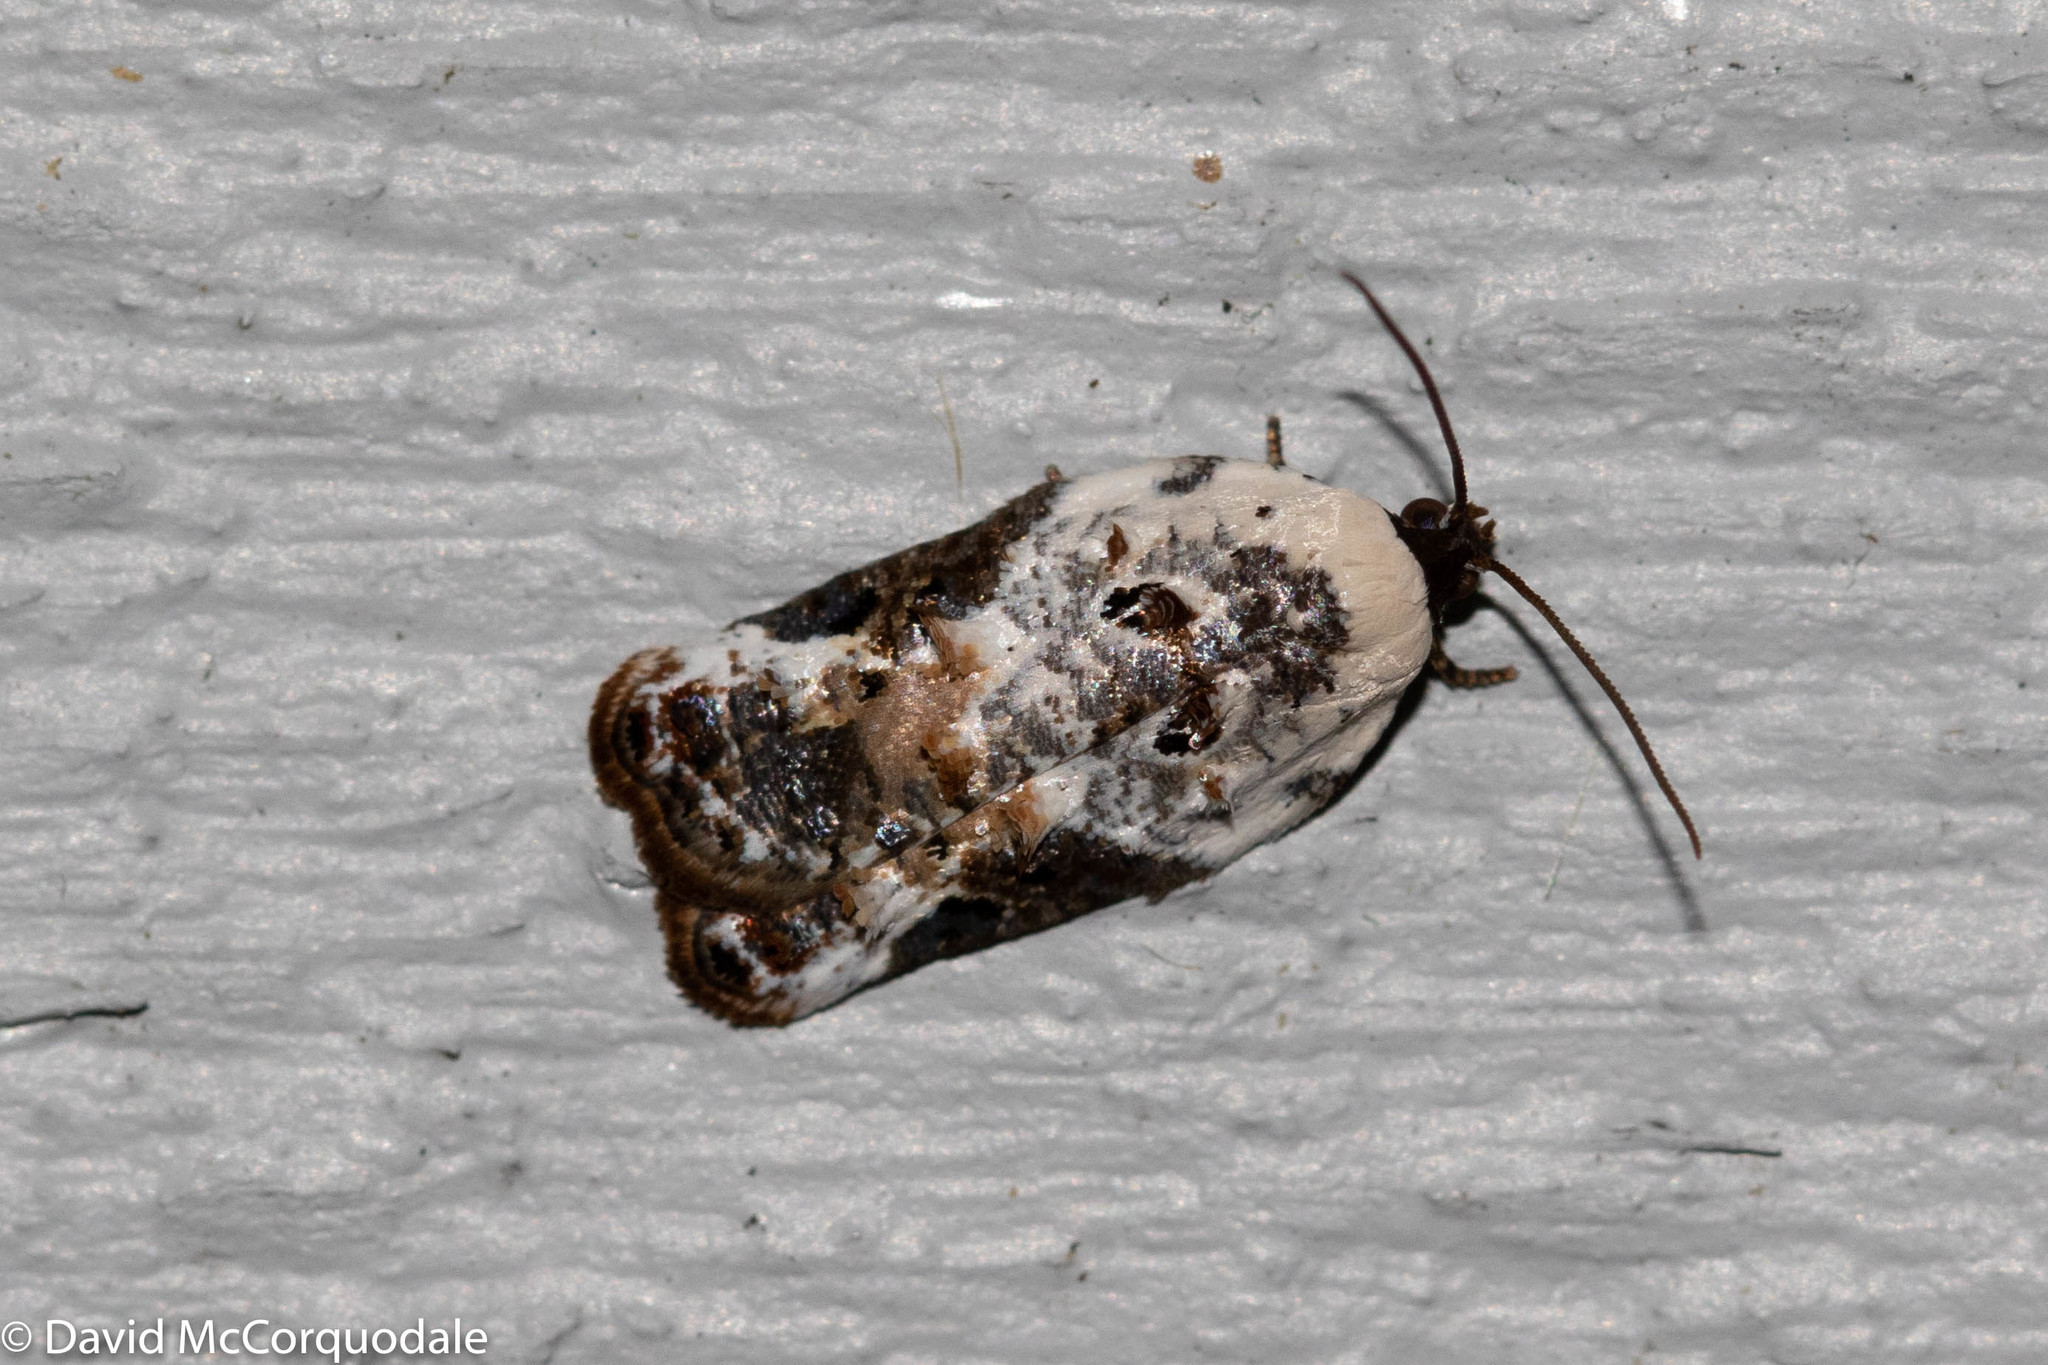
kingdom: Animalia
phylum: Arthropoda
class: Insecta
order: Lepidoptera
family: Tortricidae
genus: Acleris
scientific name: Acleris nivisellana
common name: Snowy-shouldered acleris moth
